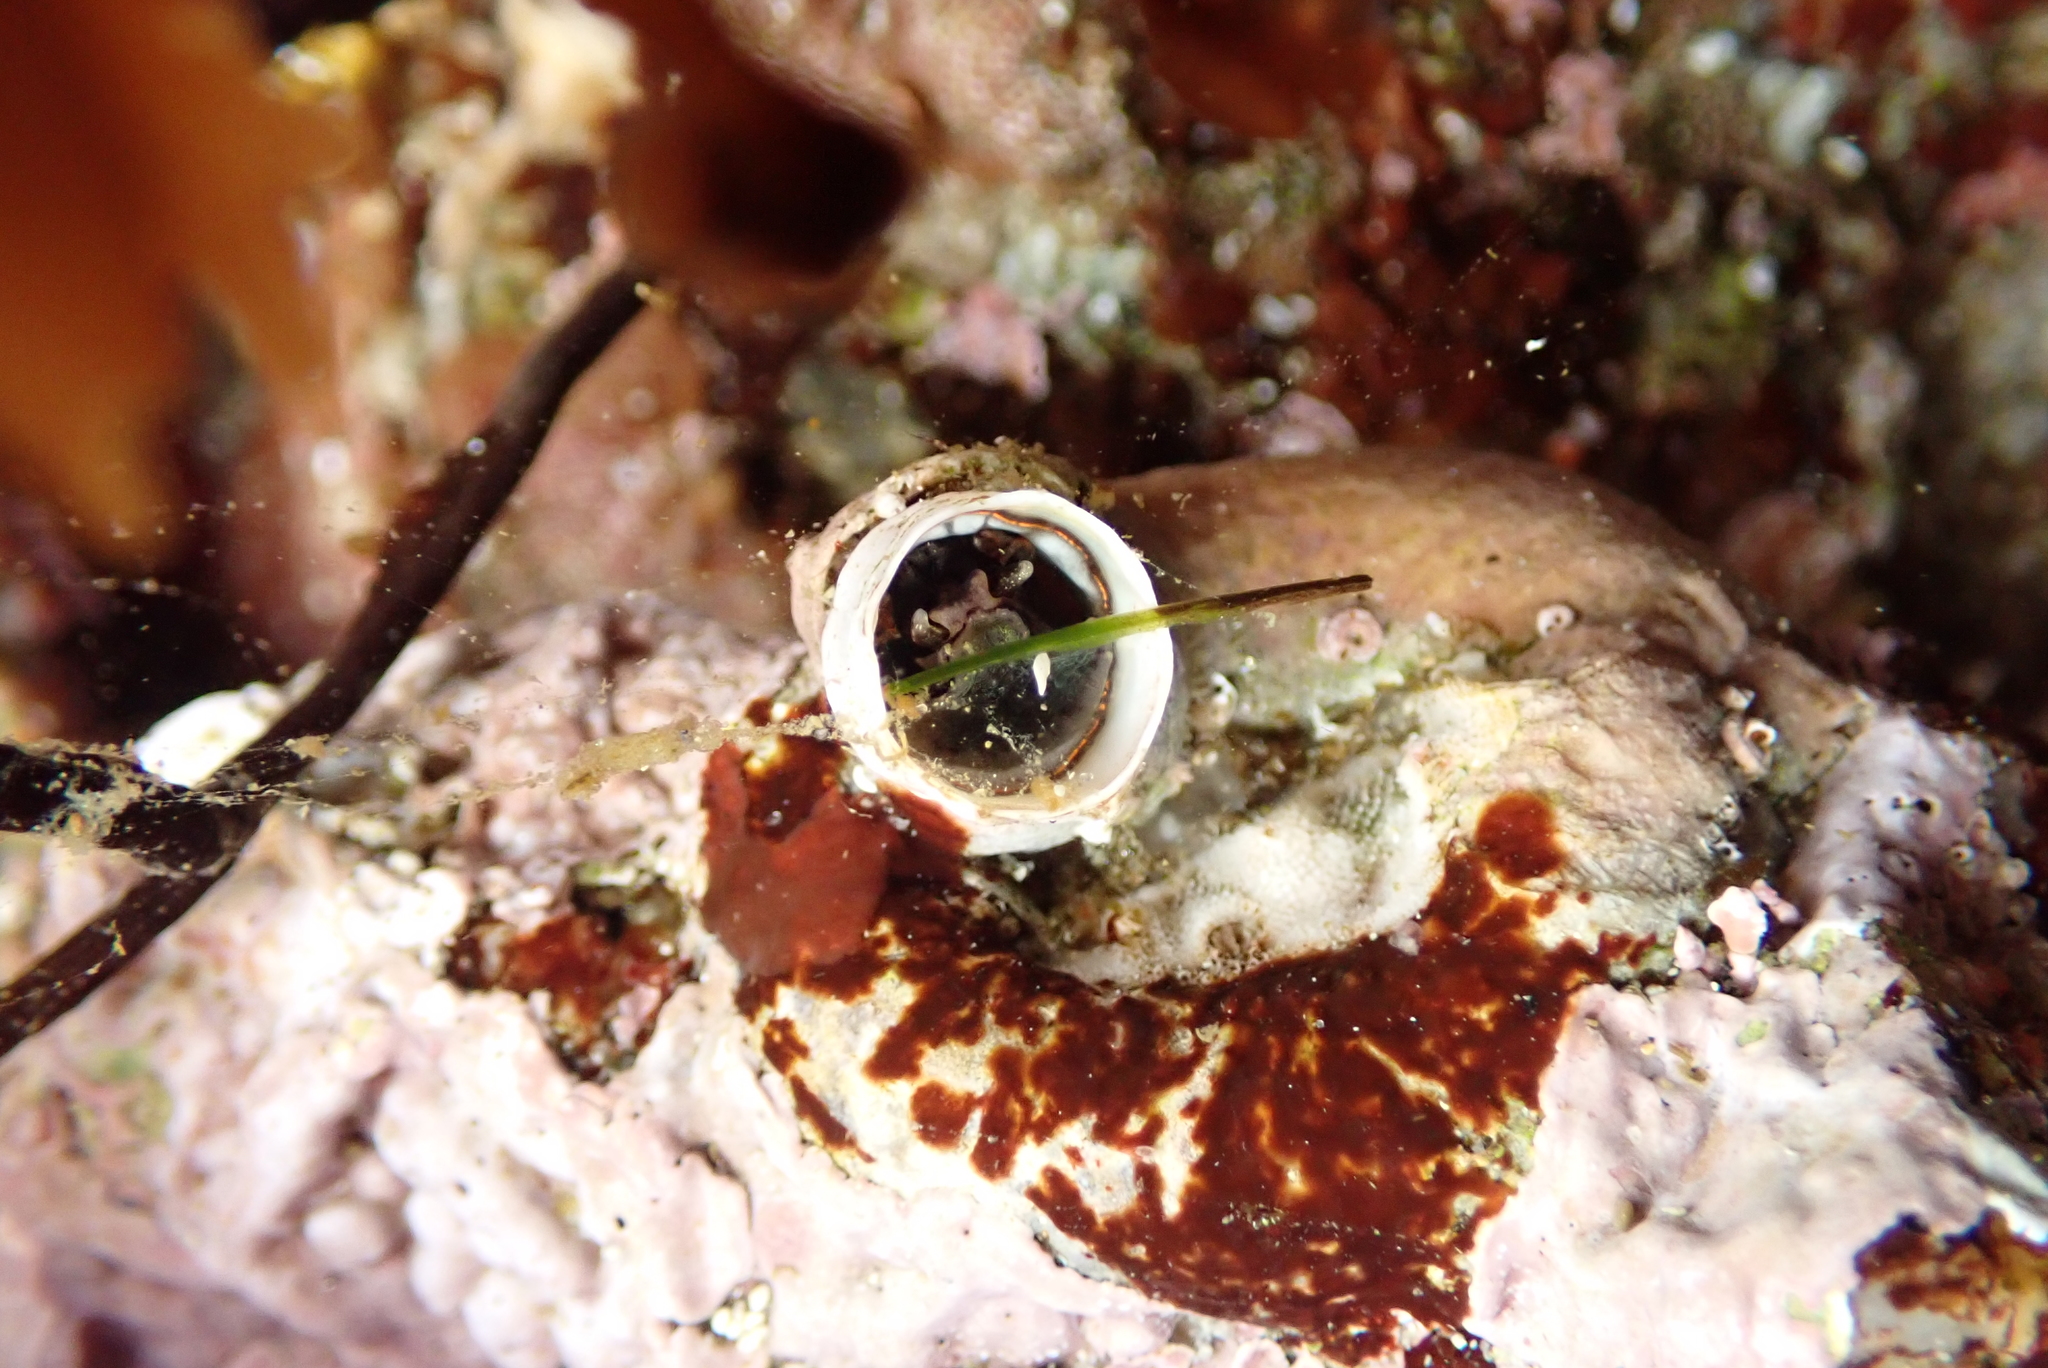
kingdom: Animalia
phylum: Mollusca
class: Gastropoda
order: Littorinimorpha
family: Vermetidae
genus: Thylacodes
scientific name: Thylacodes squamigerus
